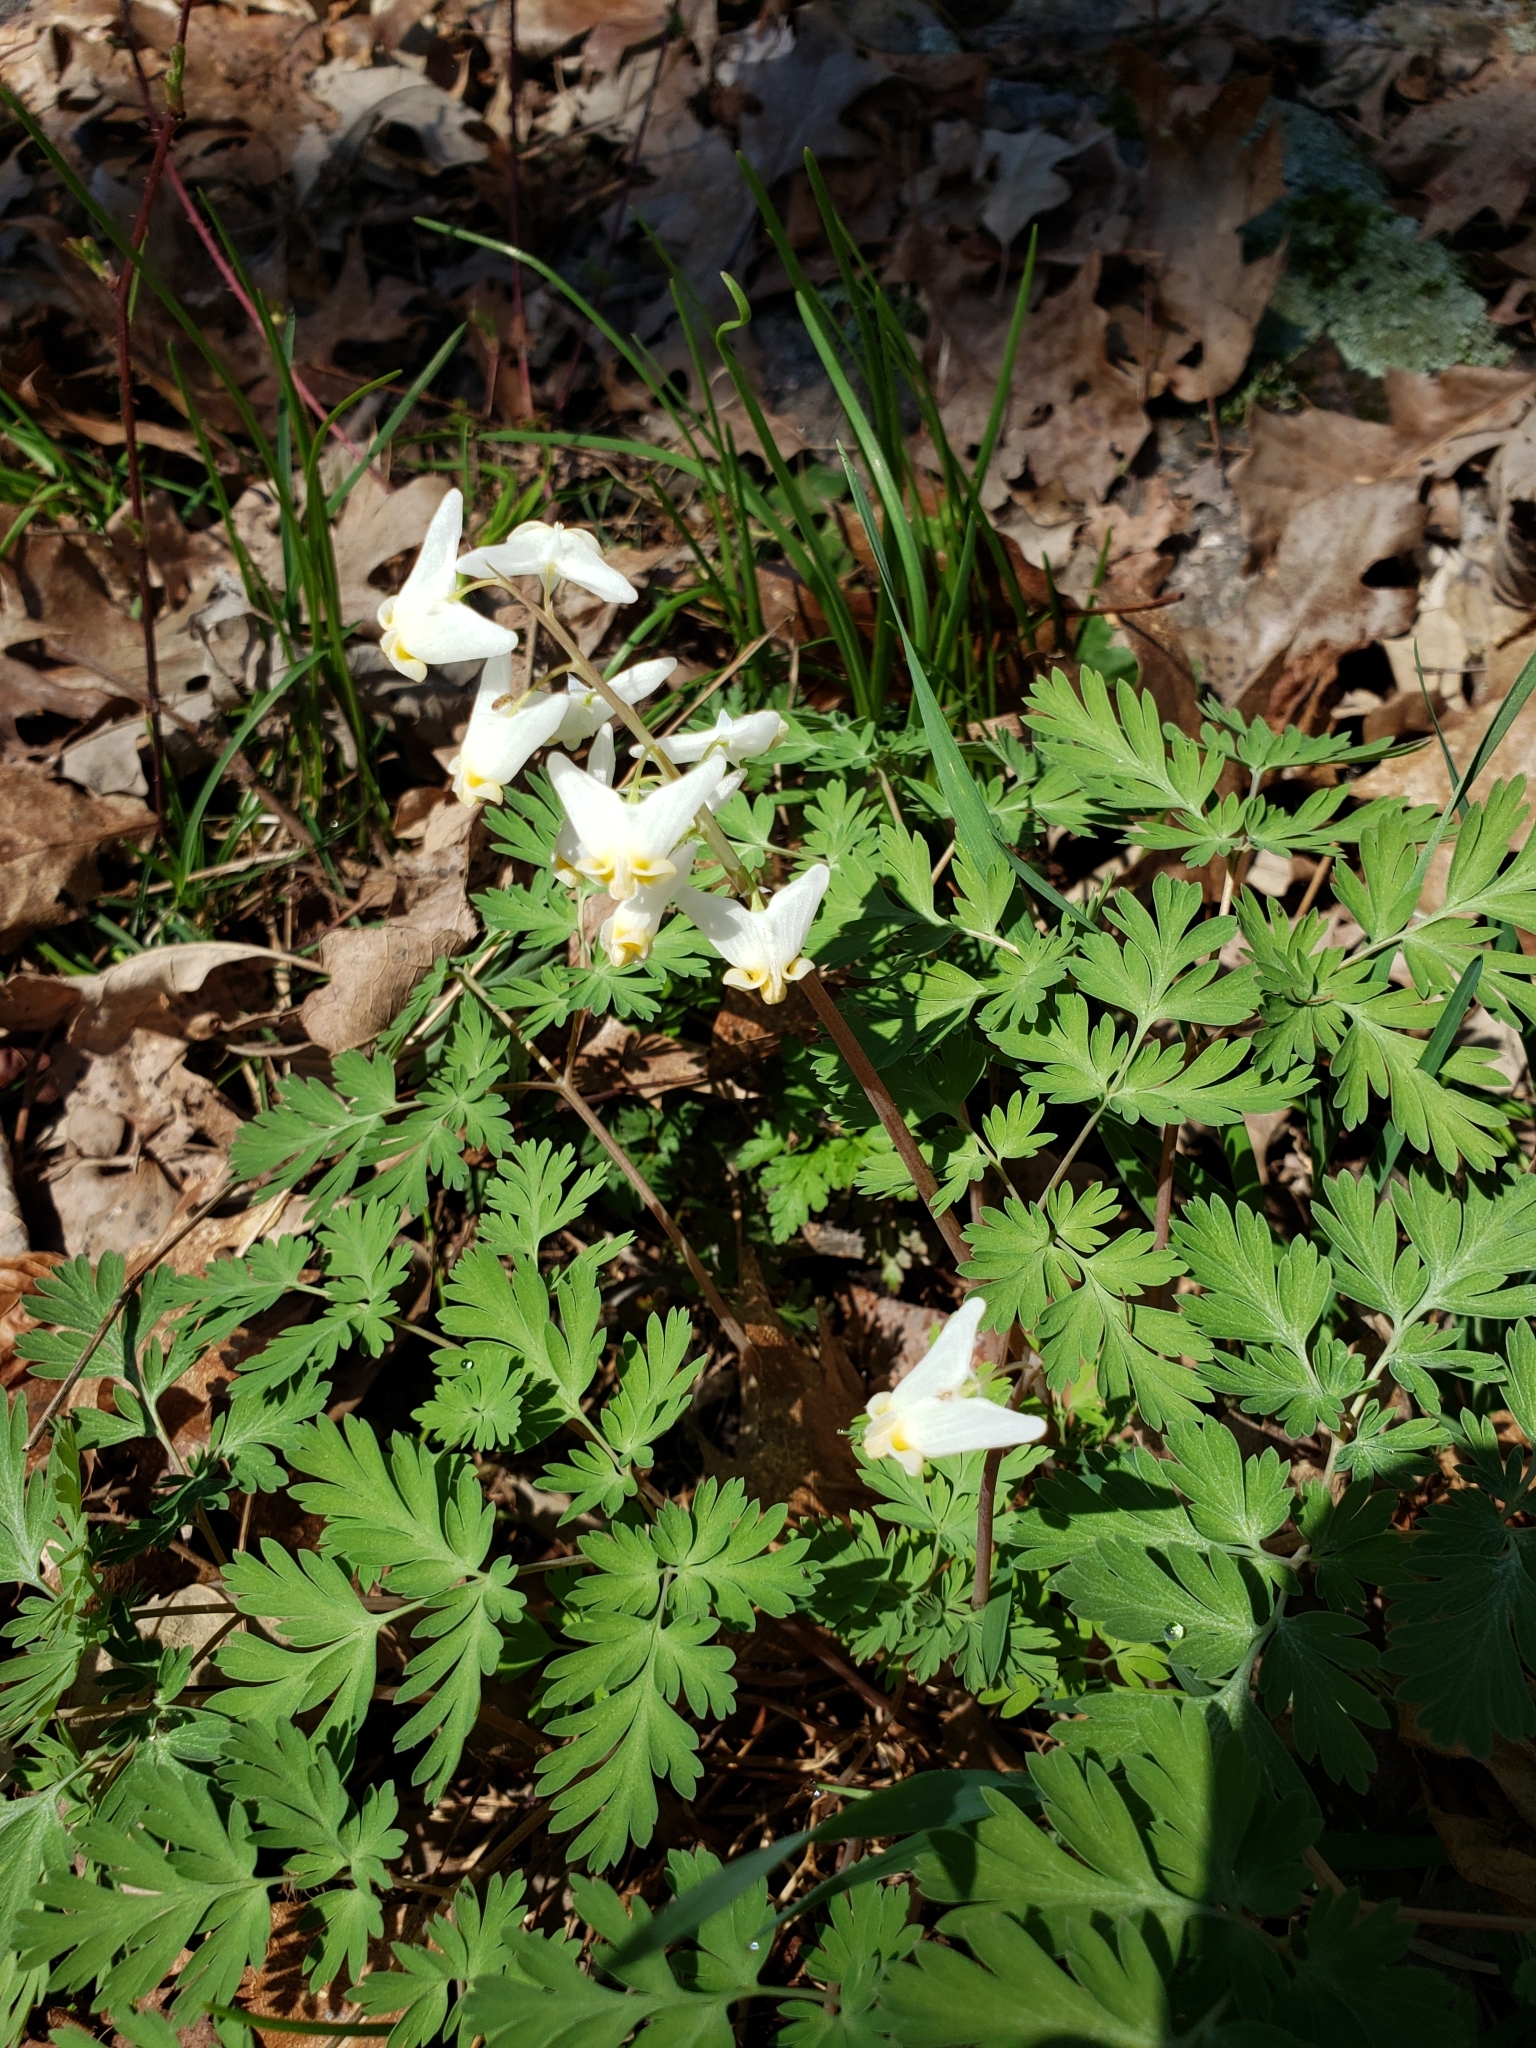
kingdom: Plantae
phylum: Tracheophyta
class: Magnoliopsida
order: Ranunculales
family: Papaveraceae
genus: Dicentra
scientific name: Dicentra cucullaria
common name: Dutchman's breeches
